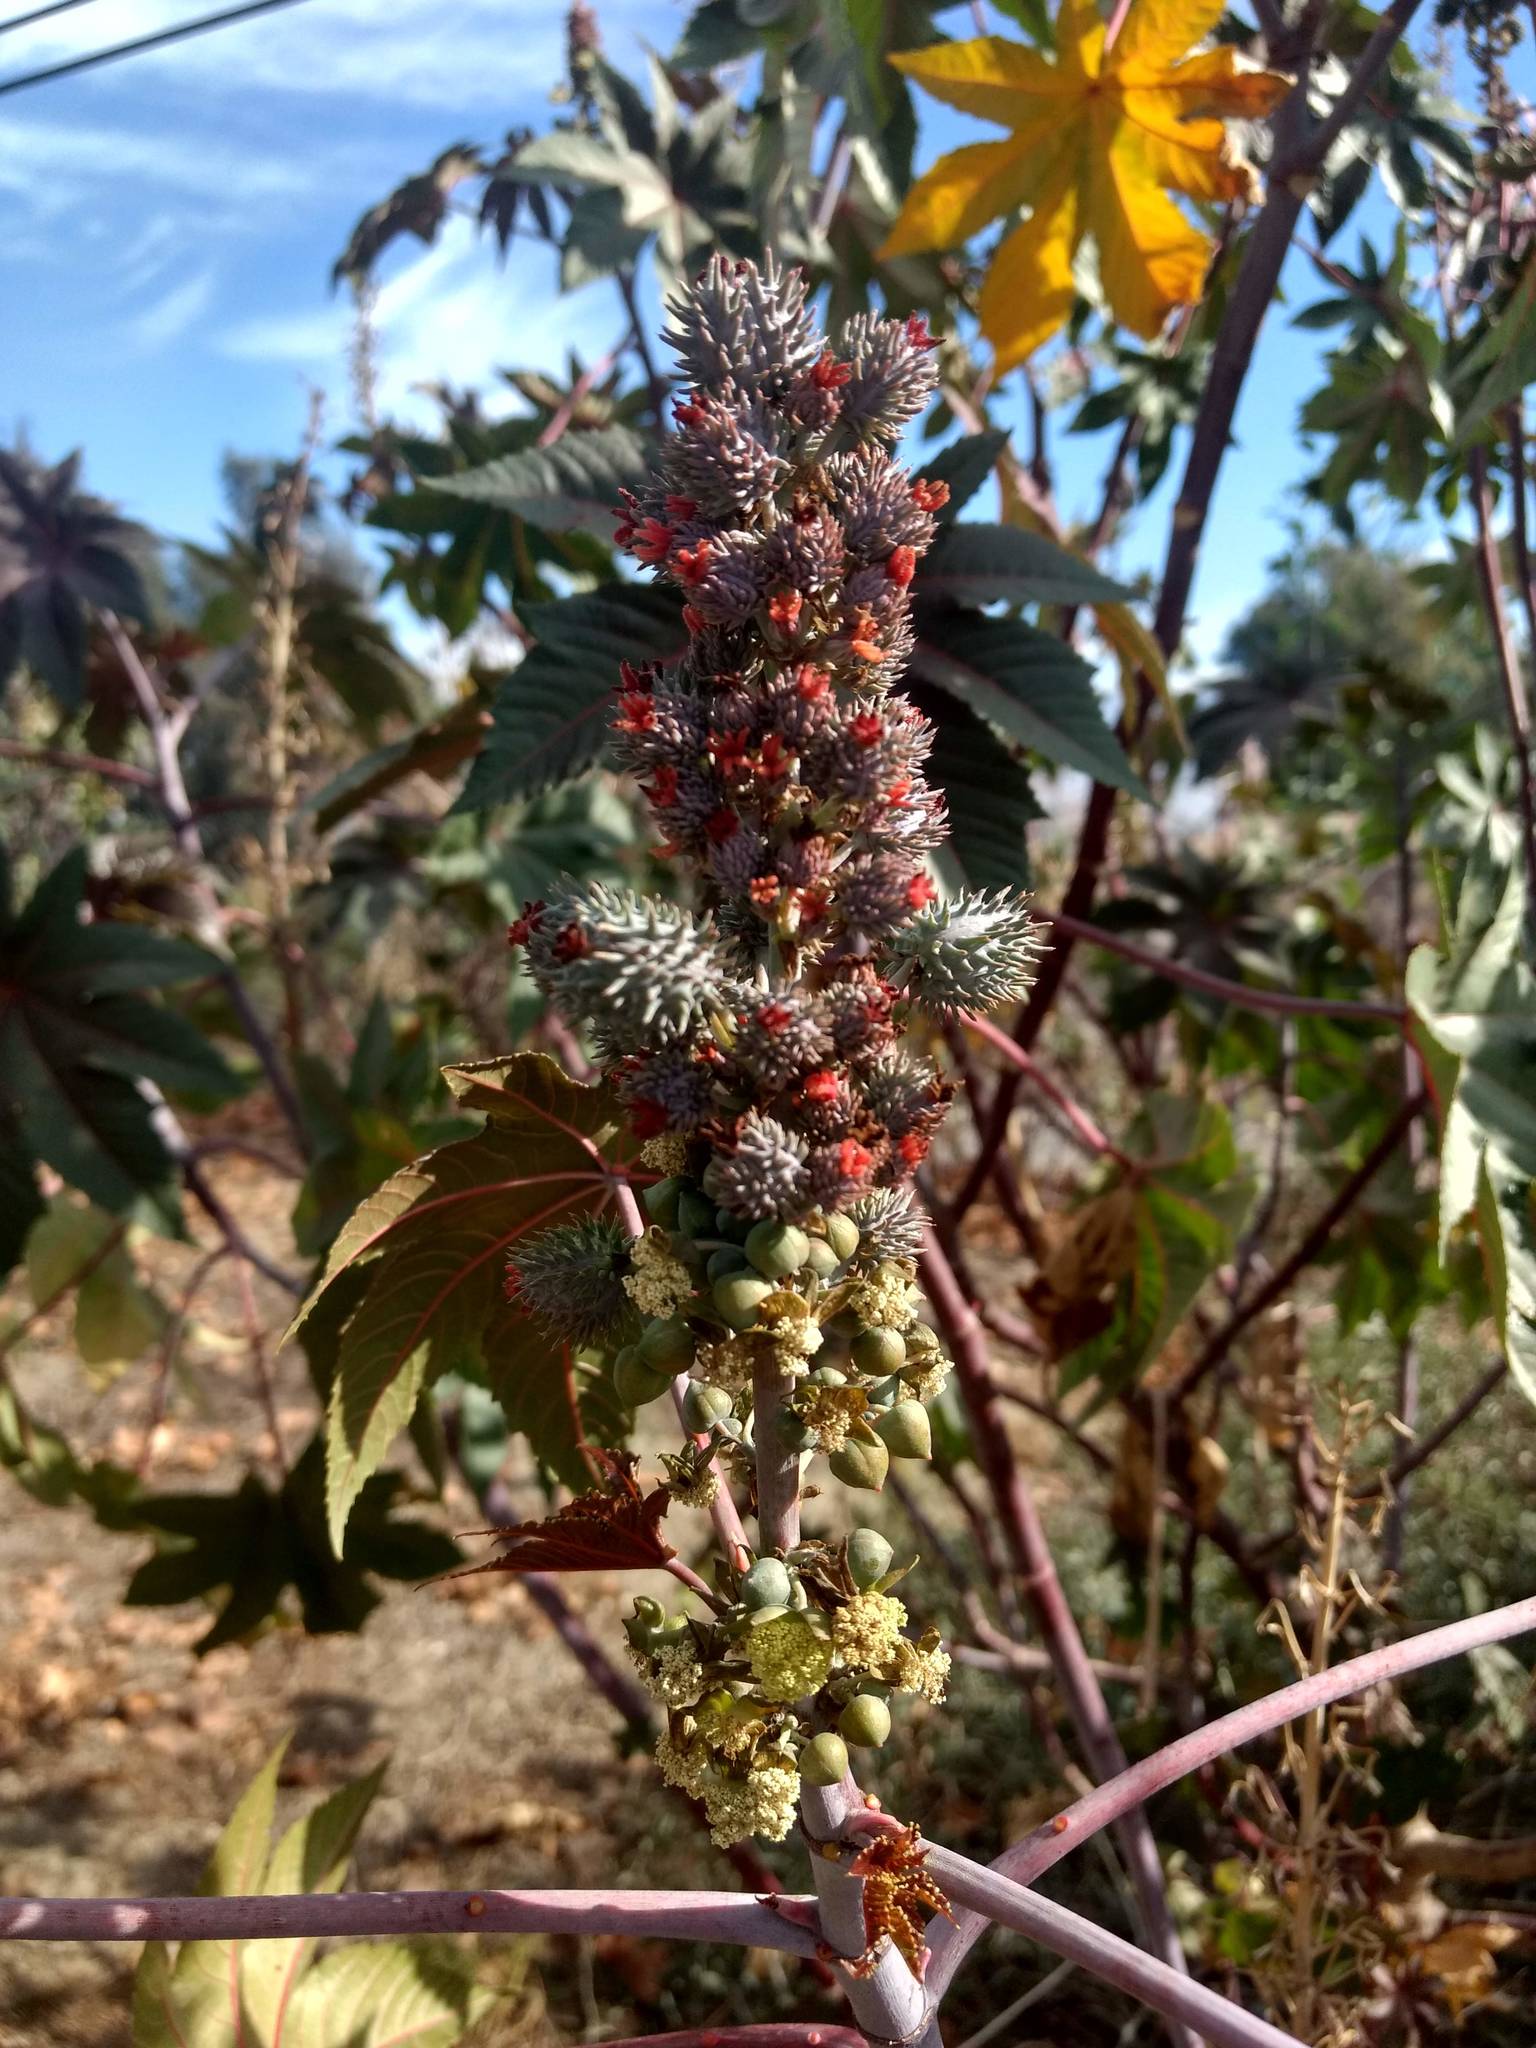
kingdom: Plantae
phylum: Tracheophyta
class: Magnoliopsida
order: Malpighiales
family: Euphorbiaceae
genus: Ricinus
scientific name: Ricinus communis
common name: Castor-oil-plant
